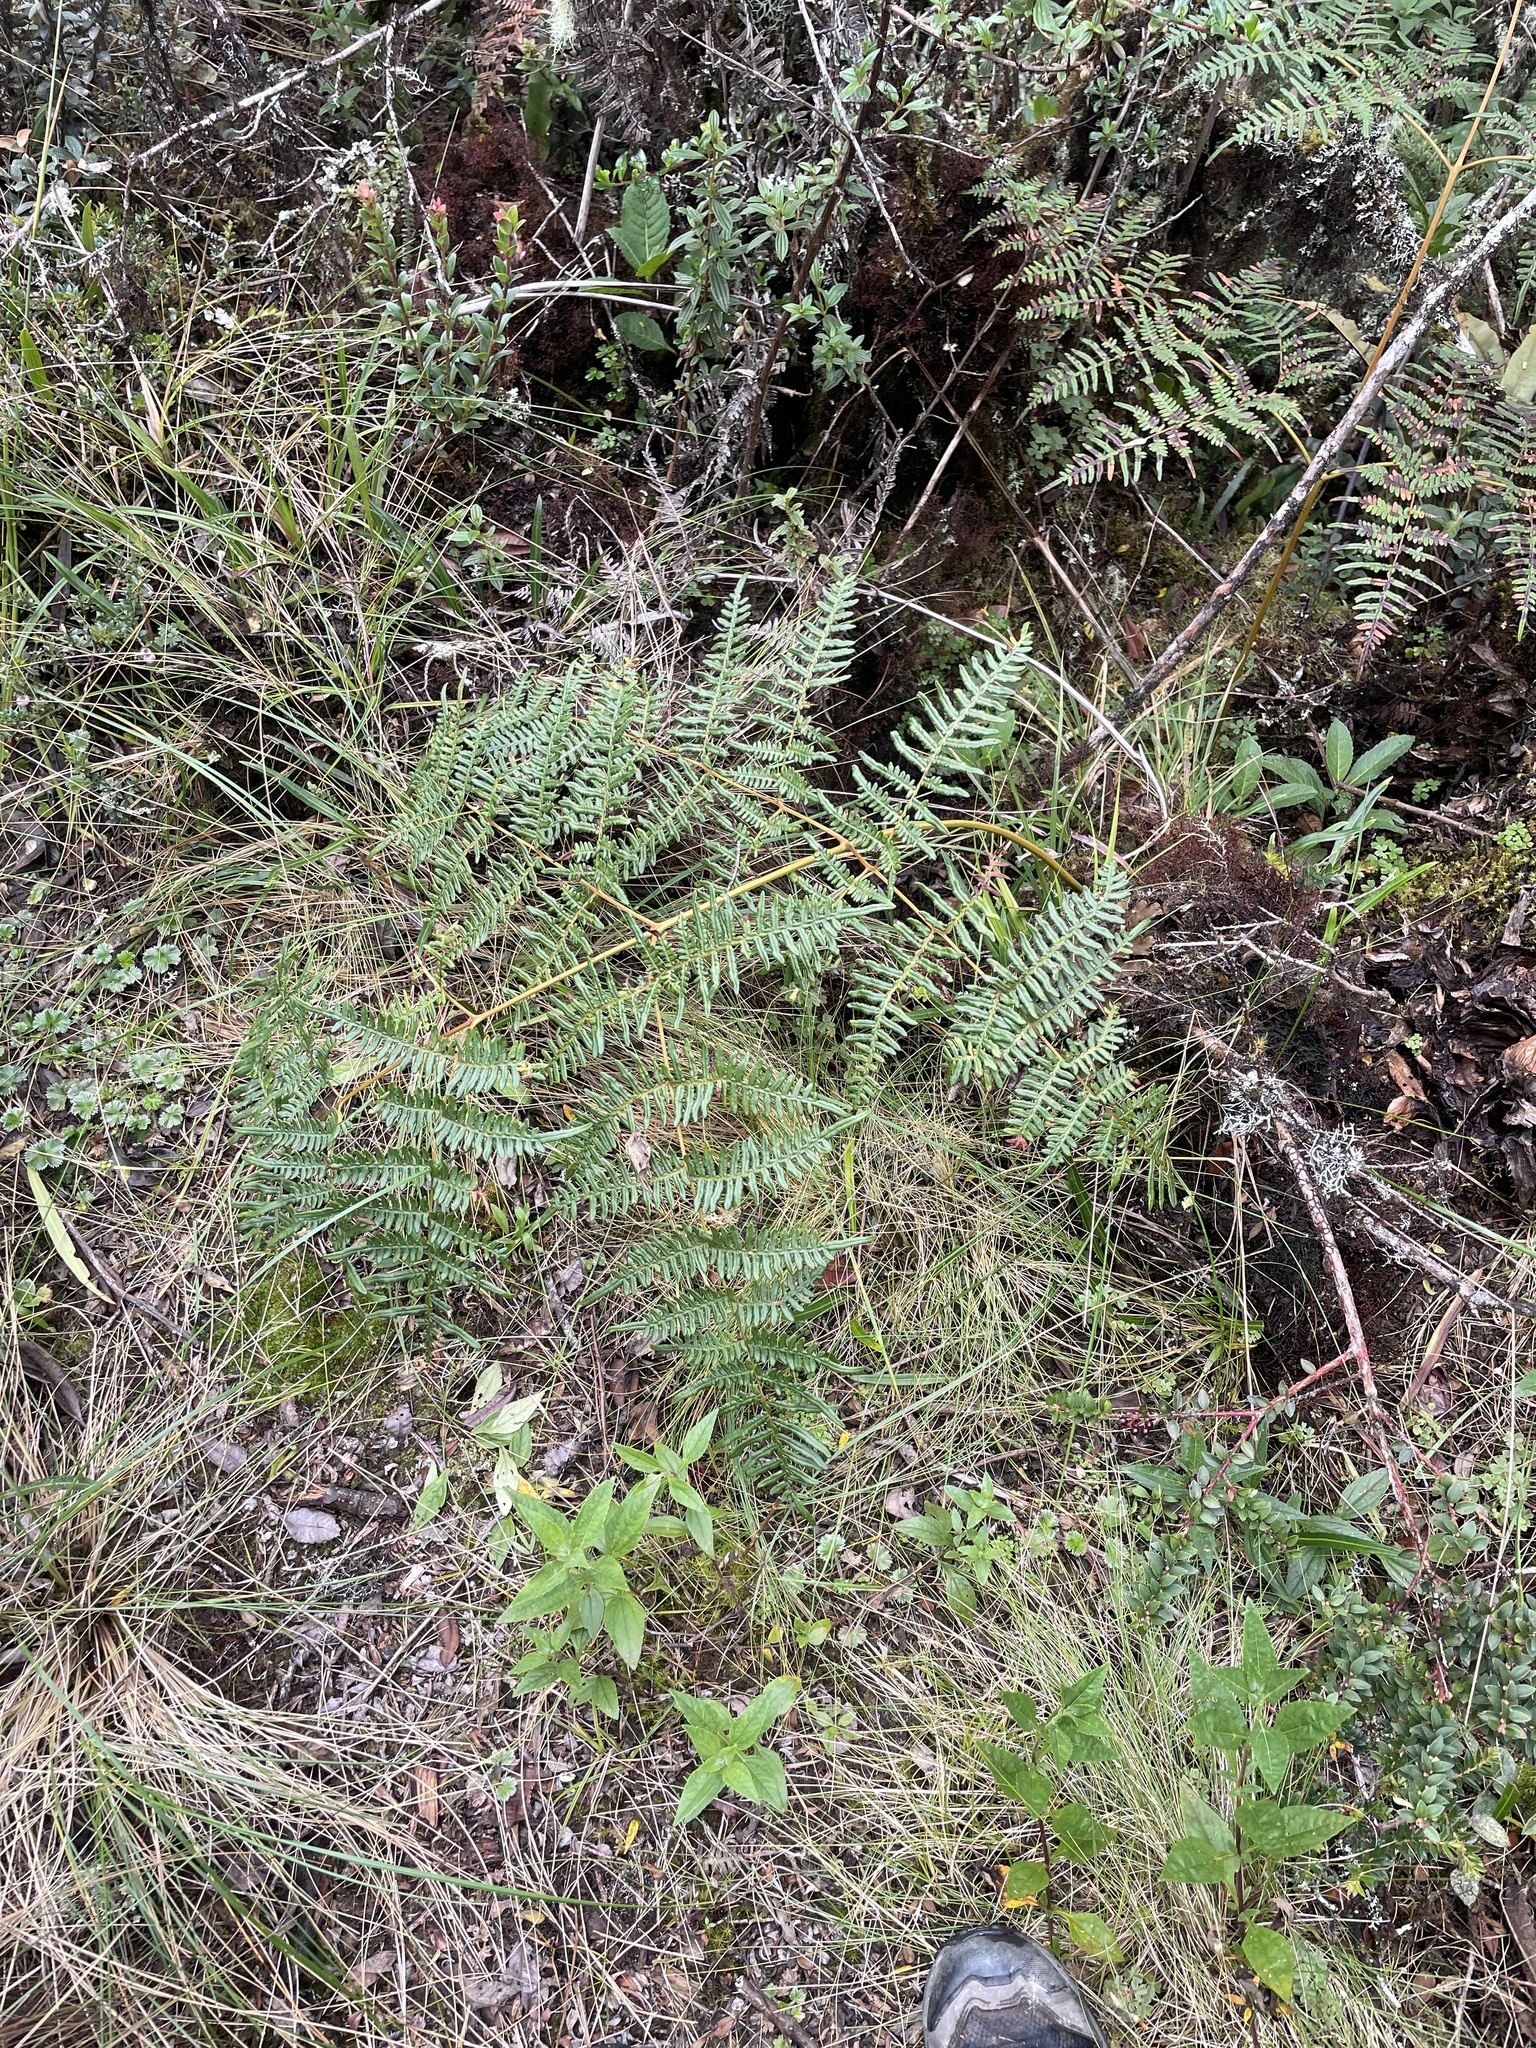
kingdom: Plantae
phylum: Tracheophyta
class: Polypodiopsida
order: Polypodiales
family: Dennstaedtiaceae
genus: Pteridium
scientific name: Pteridium esculentum
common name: Bracken fern
